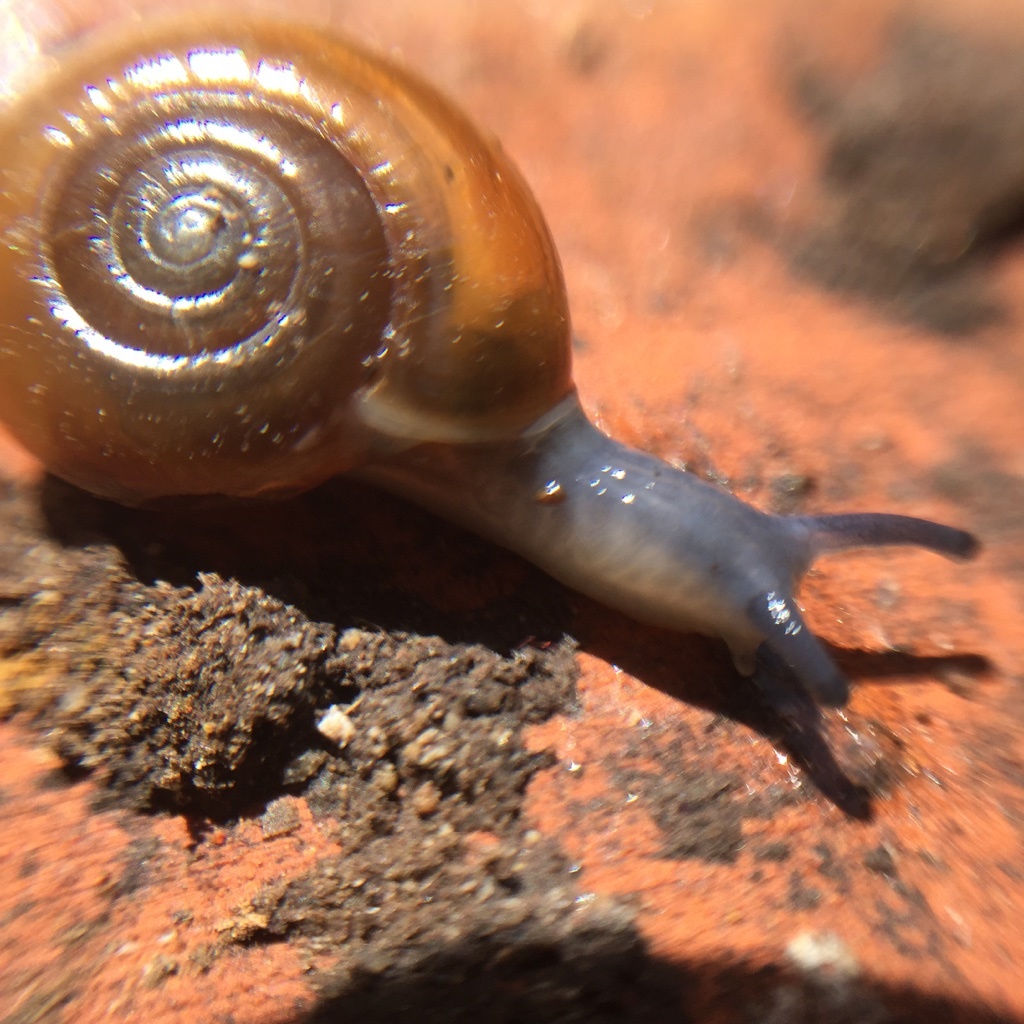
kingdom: Animalia
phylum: Mollusca
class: Gastropoda
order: Stylommatophora
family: Oxychilidae
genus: Oxychilus
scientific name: Oxychilus draparnaudi
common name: Draparnaud's glass snail
